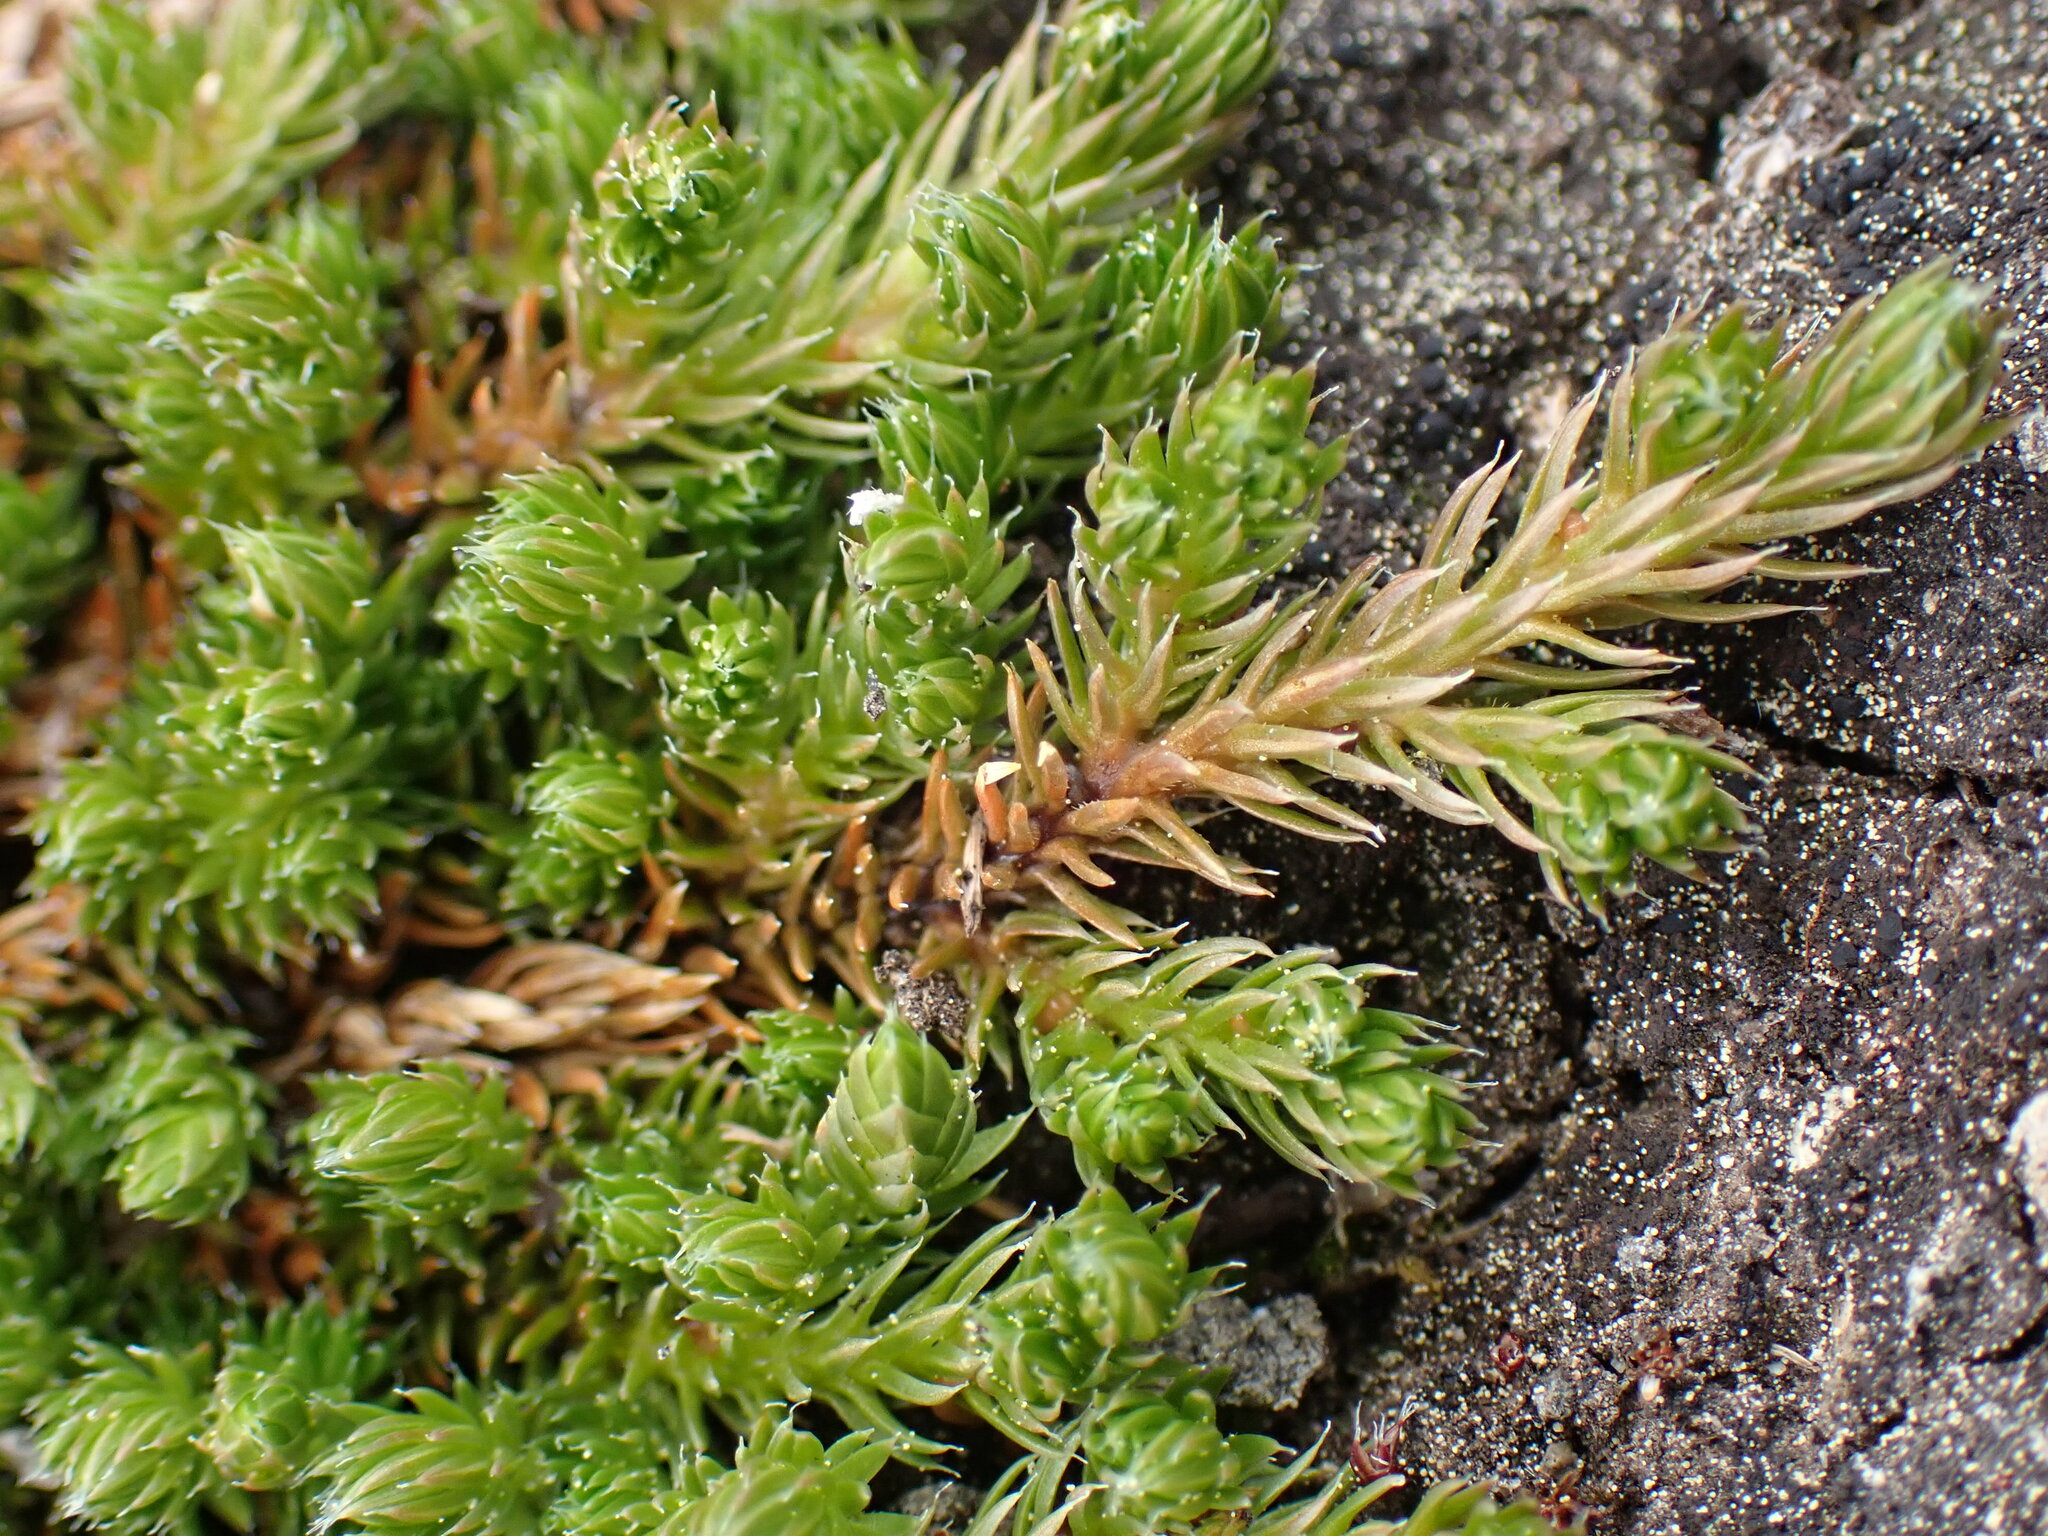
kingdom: Plantae
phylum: Tracheophyta
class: Lycopodiopsida
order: Selaginellales
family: Selaginellaceae
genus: Selaginella
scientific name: Selaginella densa
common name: Mountain spike-moss
